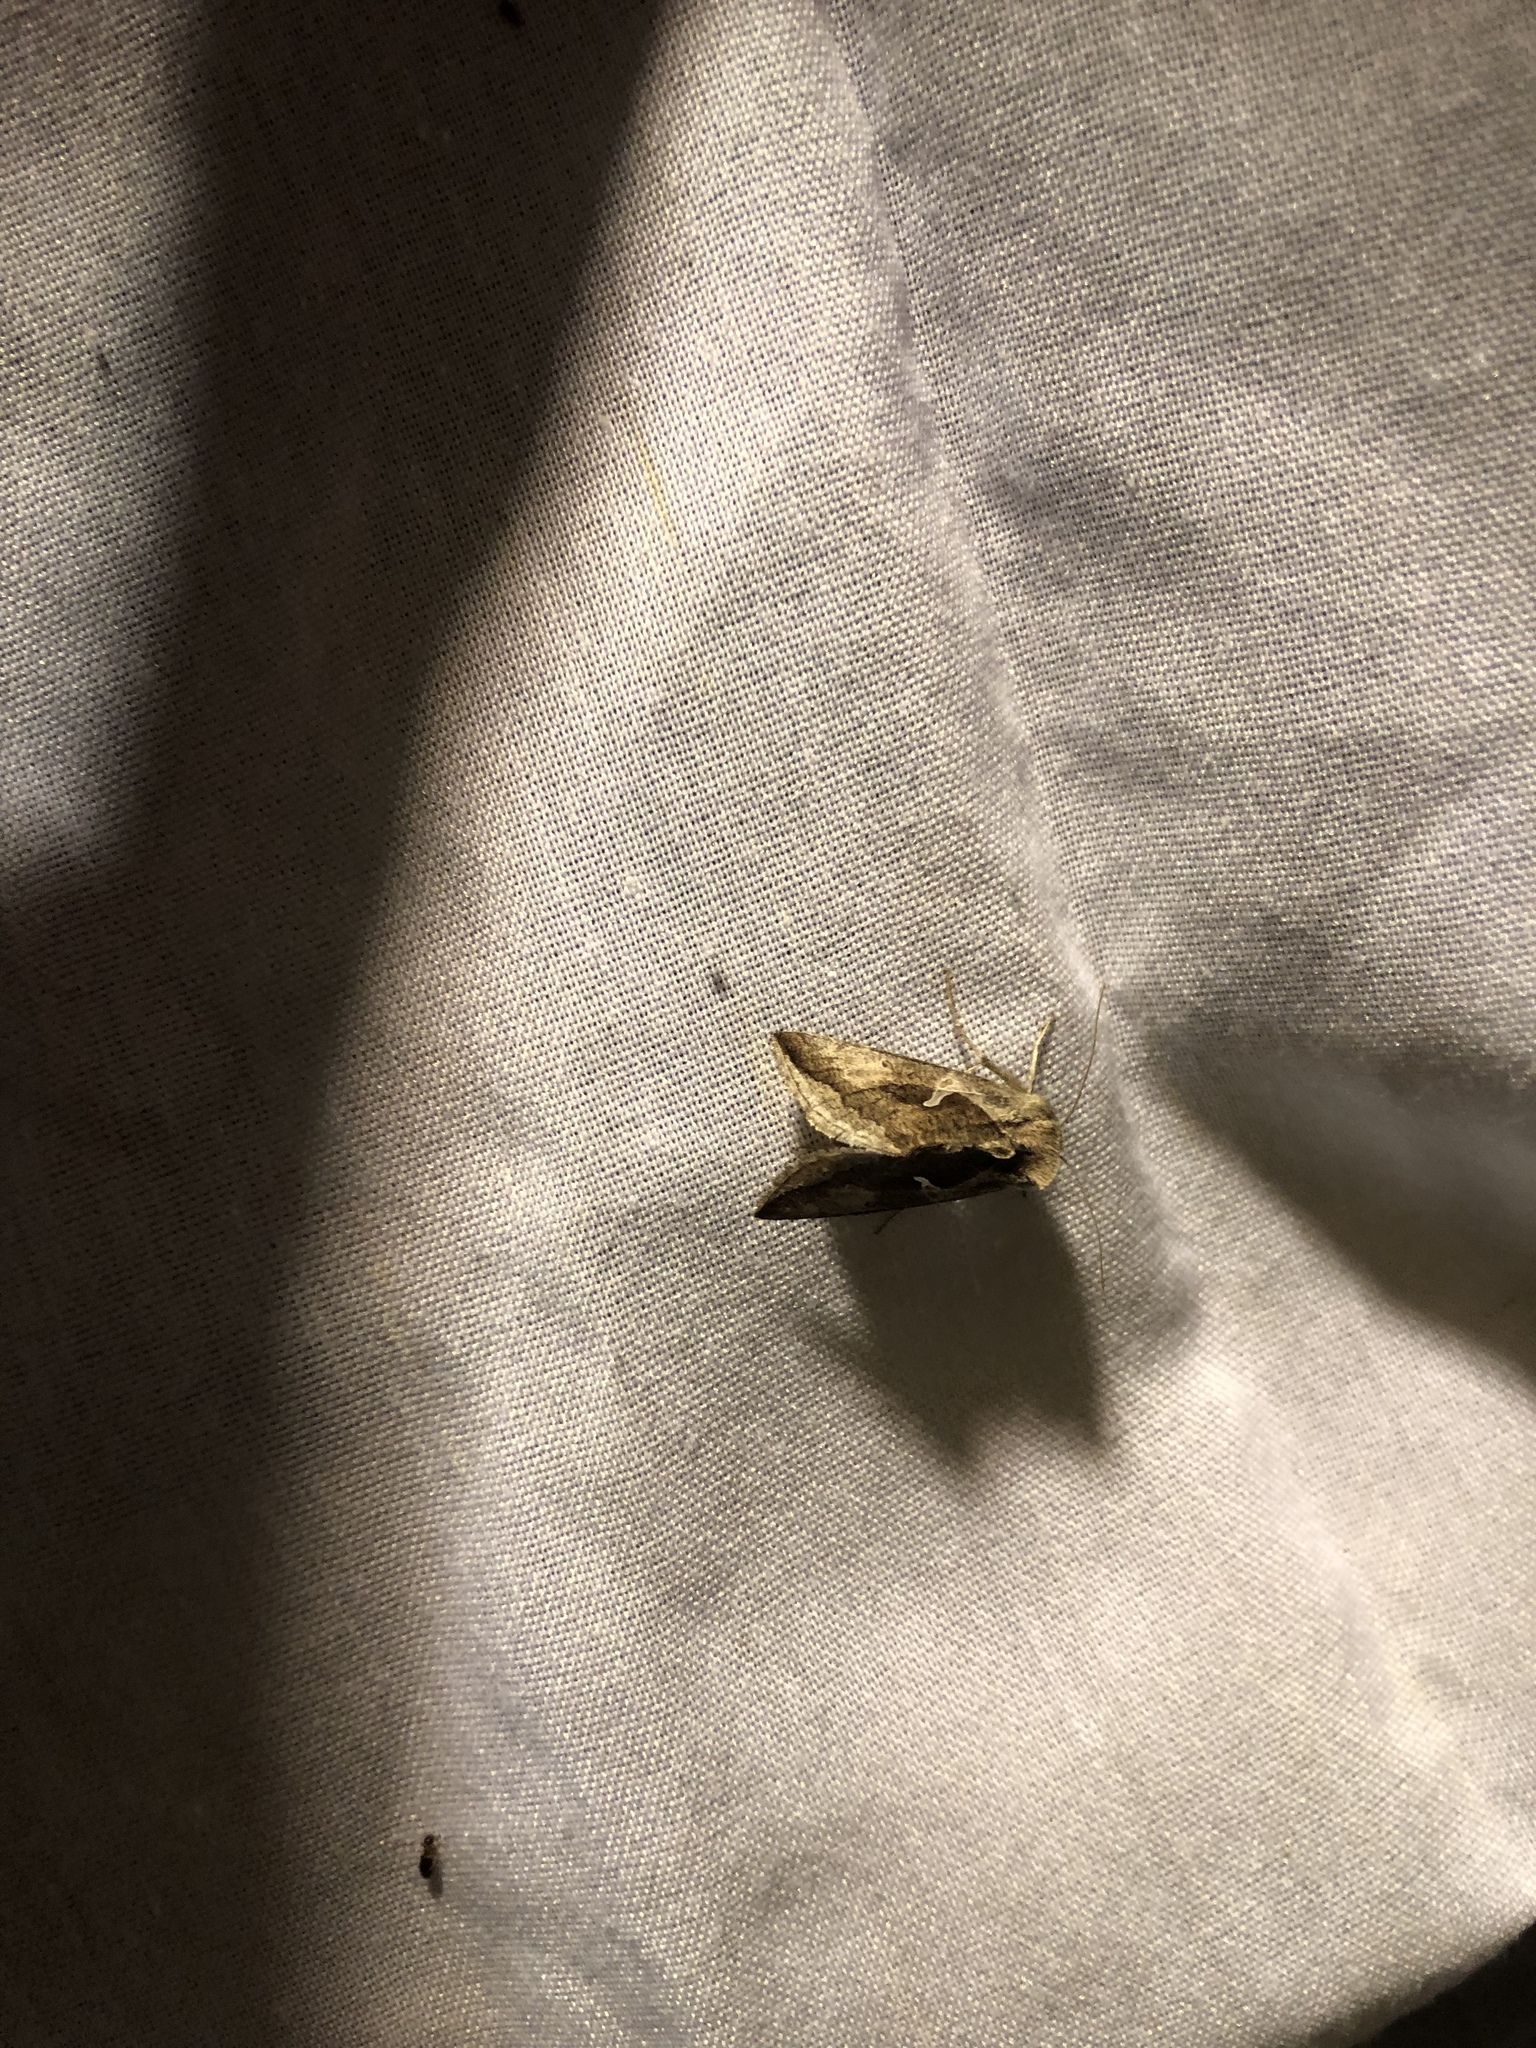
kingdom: Animalia
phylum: Arthropoda
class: Insecta
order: Lepidoptera
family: Noctuidae
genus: Anagrapha
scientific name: Anagrapha falcifera
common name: Celery looper
